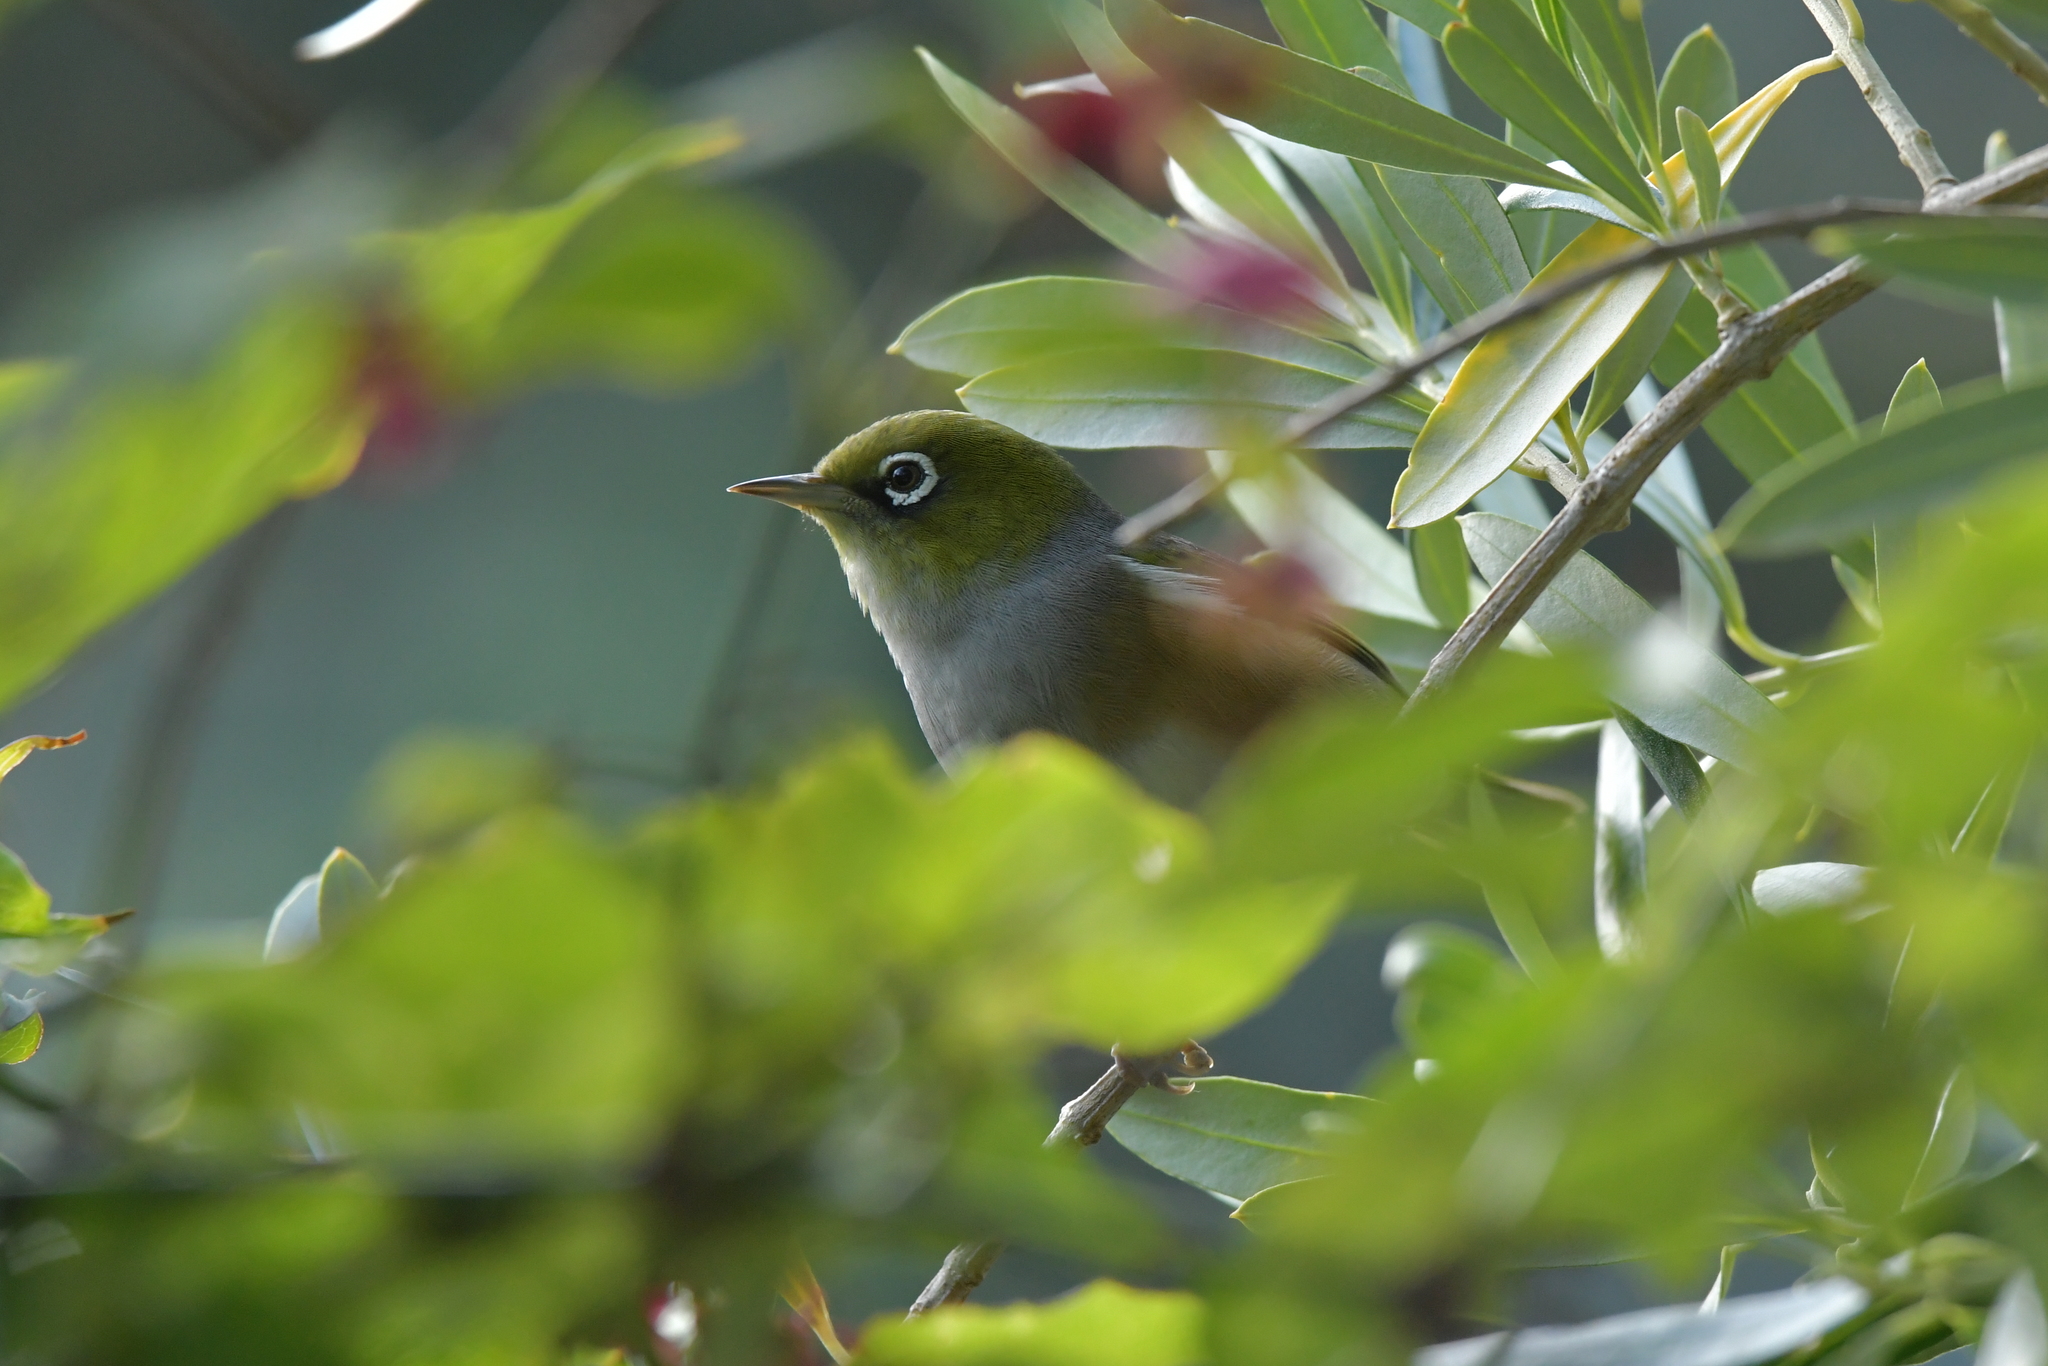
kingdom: Animalia
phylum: Chordata
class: Aves
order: Passeriformes
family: Zosteropidae
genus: Zosterops
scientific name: Zosterops lateralis
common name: Silvereye
